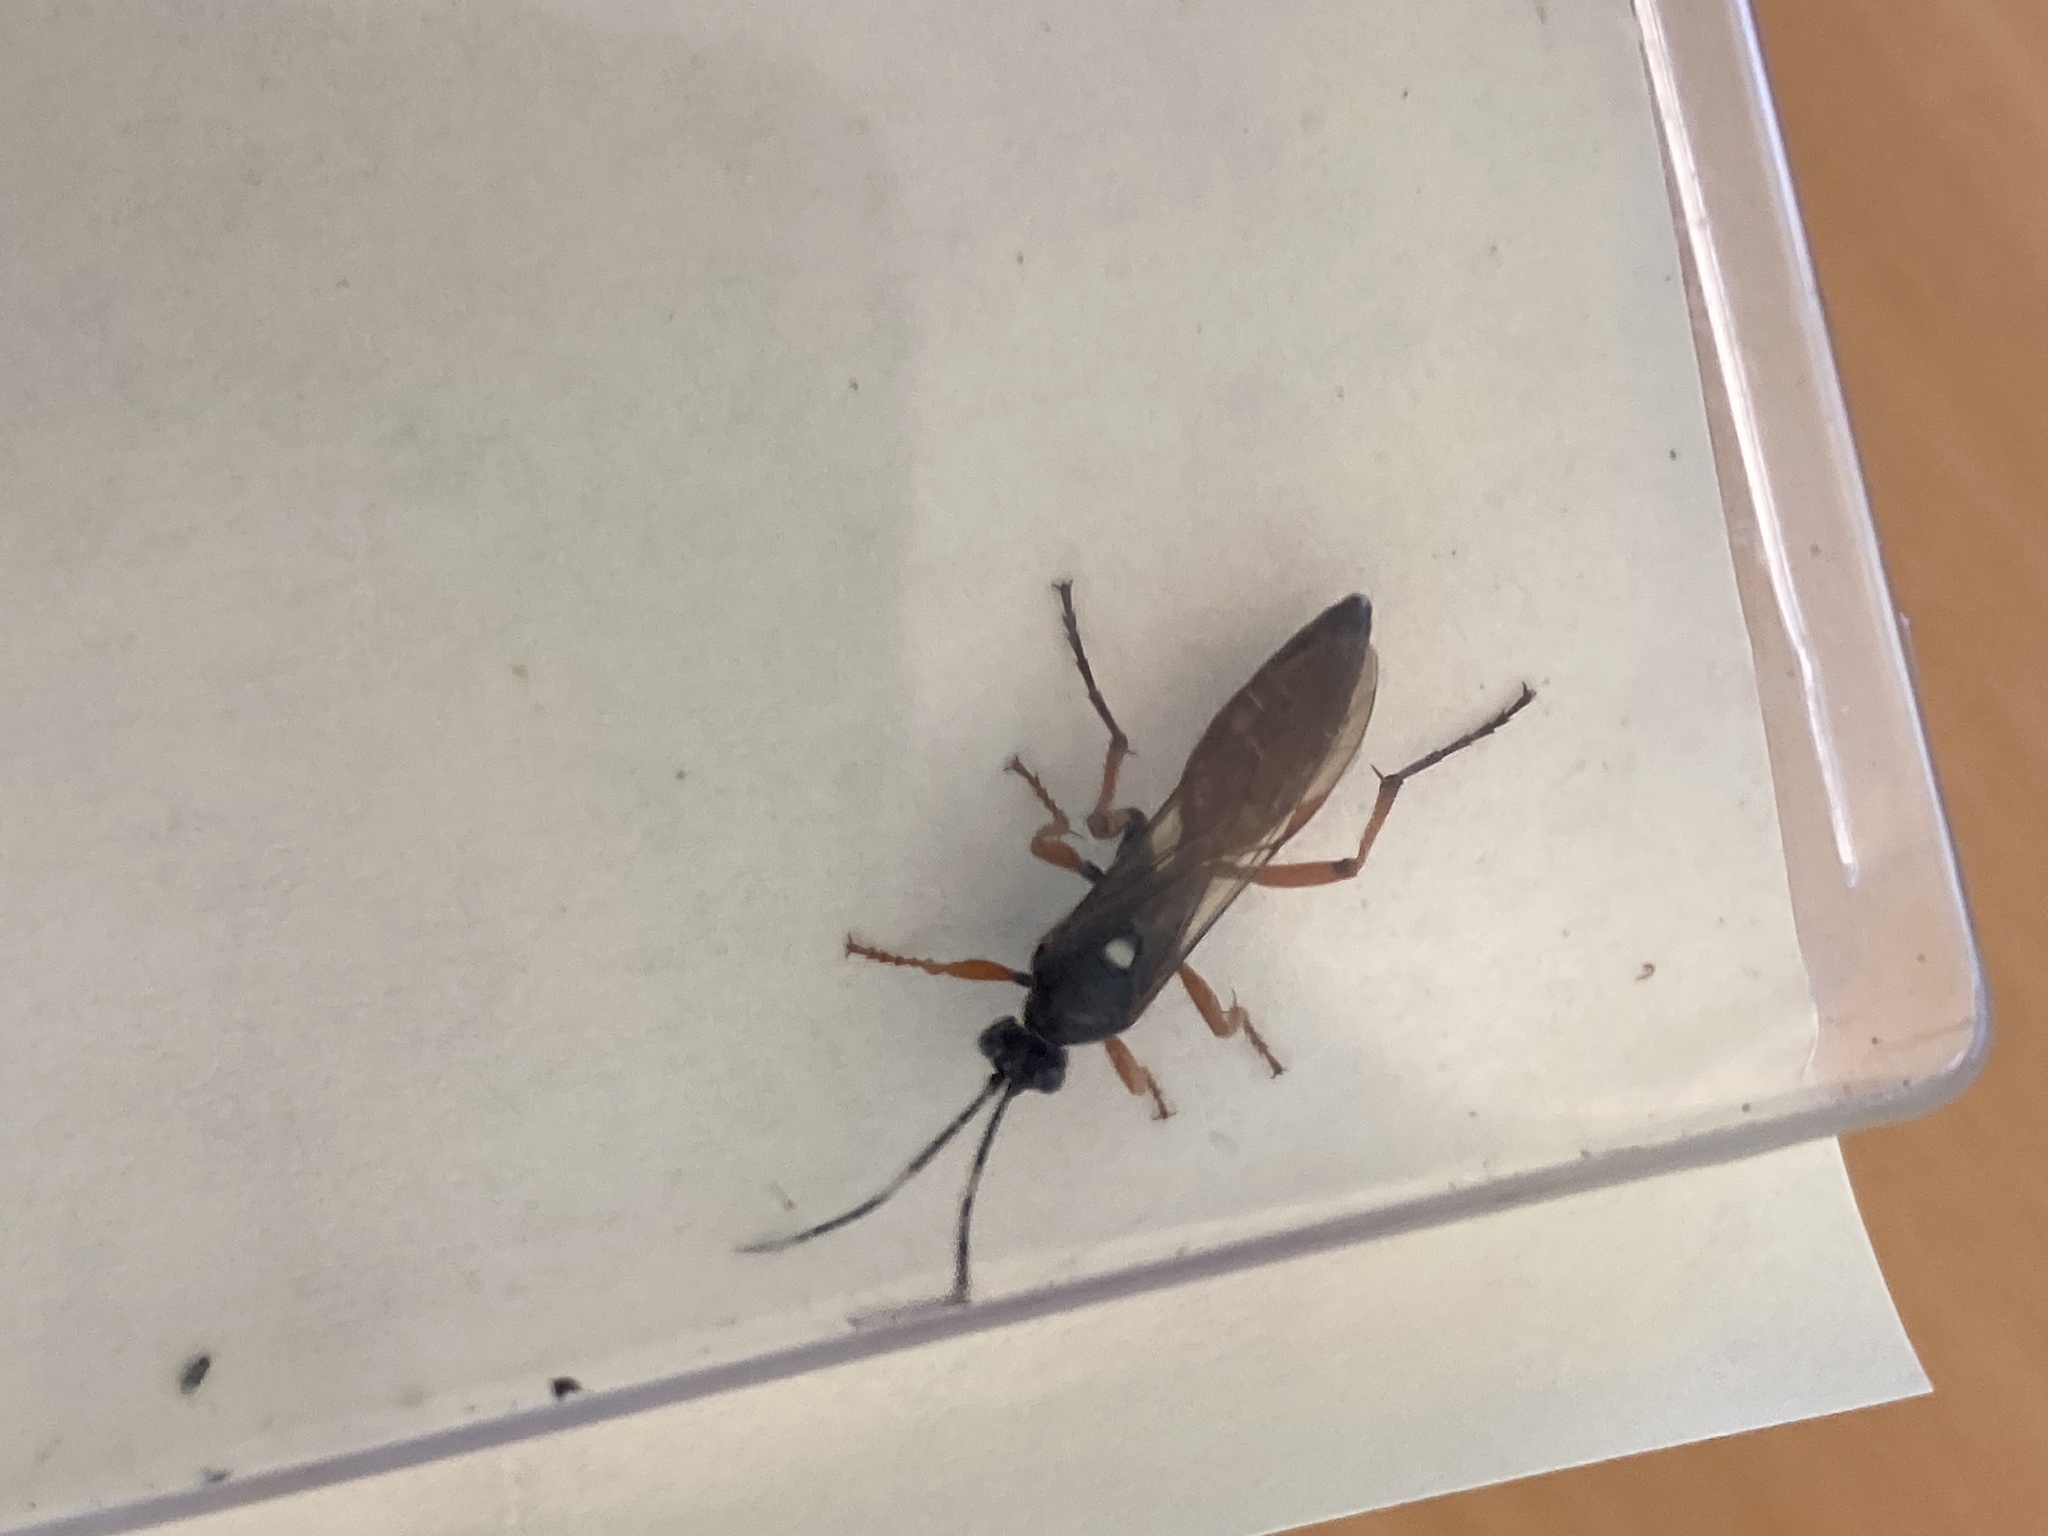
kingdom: Animalia
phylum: Arthropoda
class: Insecta
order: Hymenoptera
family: Ichneumonidae
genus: Diphyus
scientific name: Diphyus quadripunctorius
